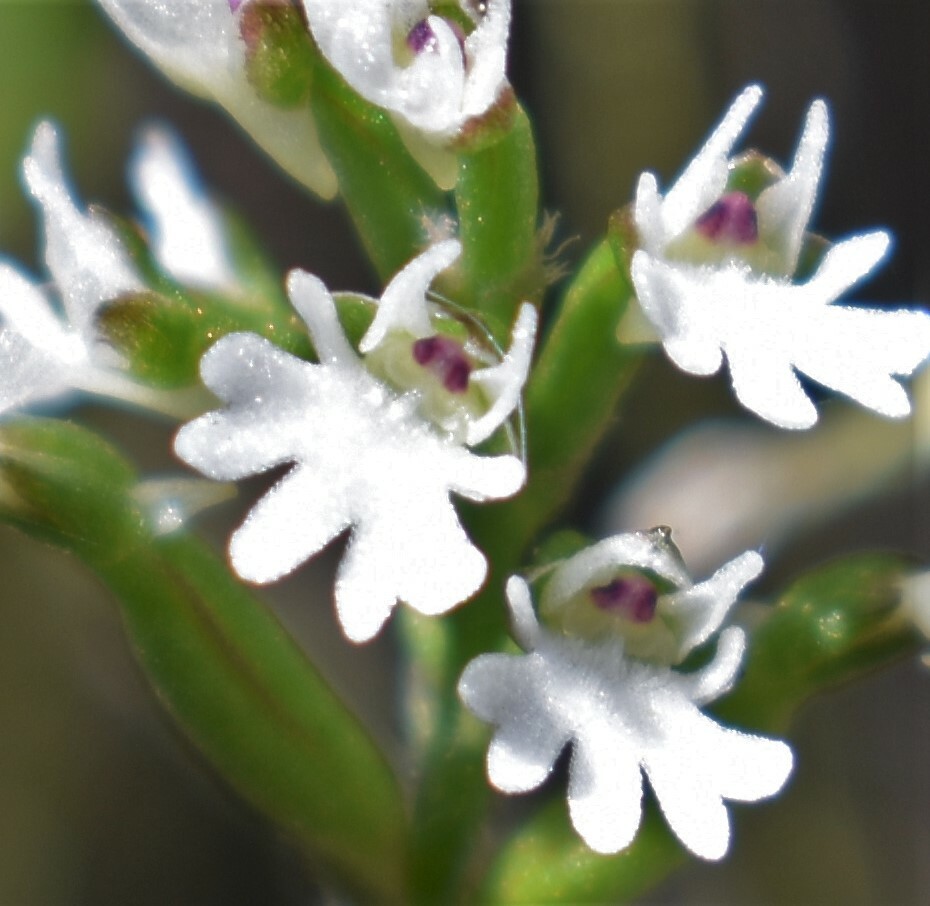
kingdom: Plantae
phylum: Tracheophyta
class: Liliopsida
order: Asparagales
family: Orchidaceae
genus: Holothrix
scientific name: Holothrix mundii
